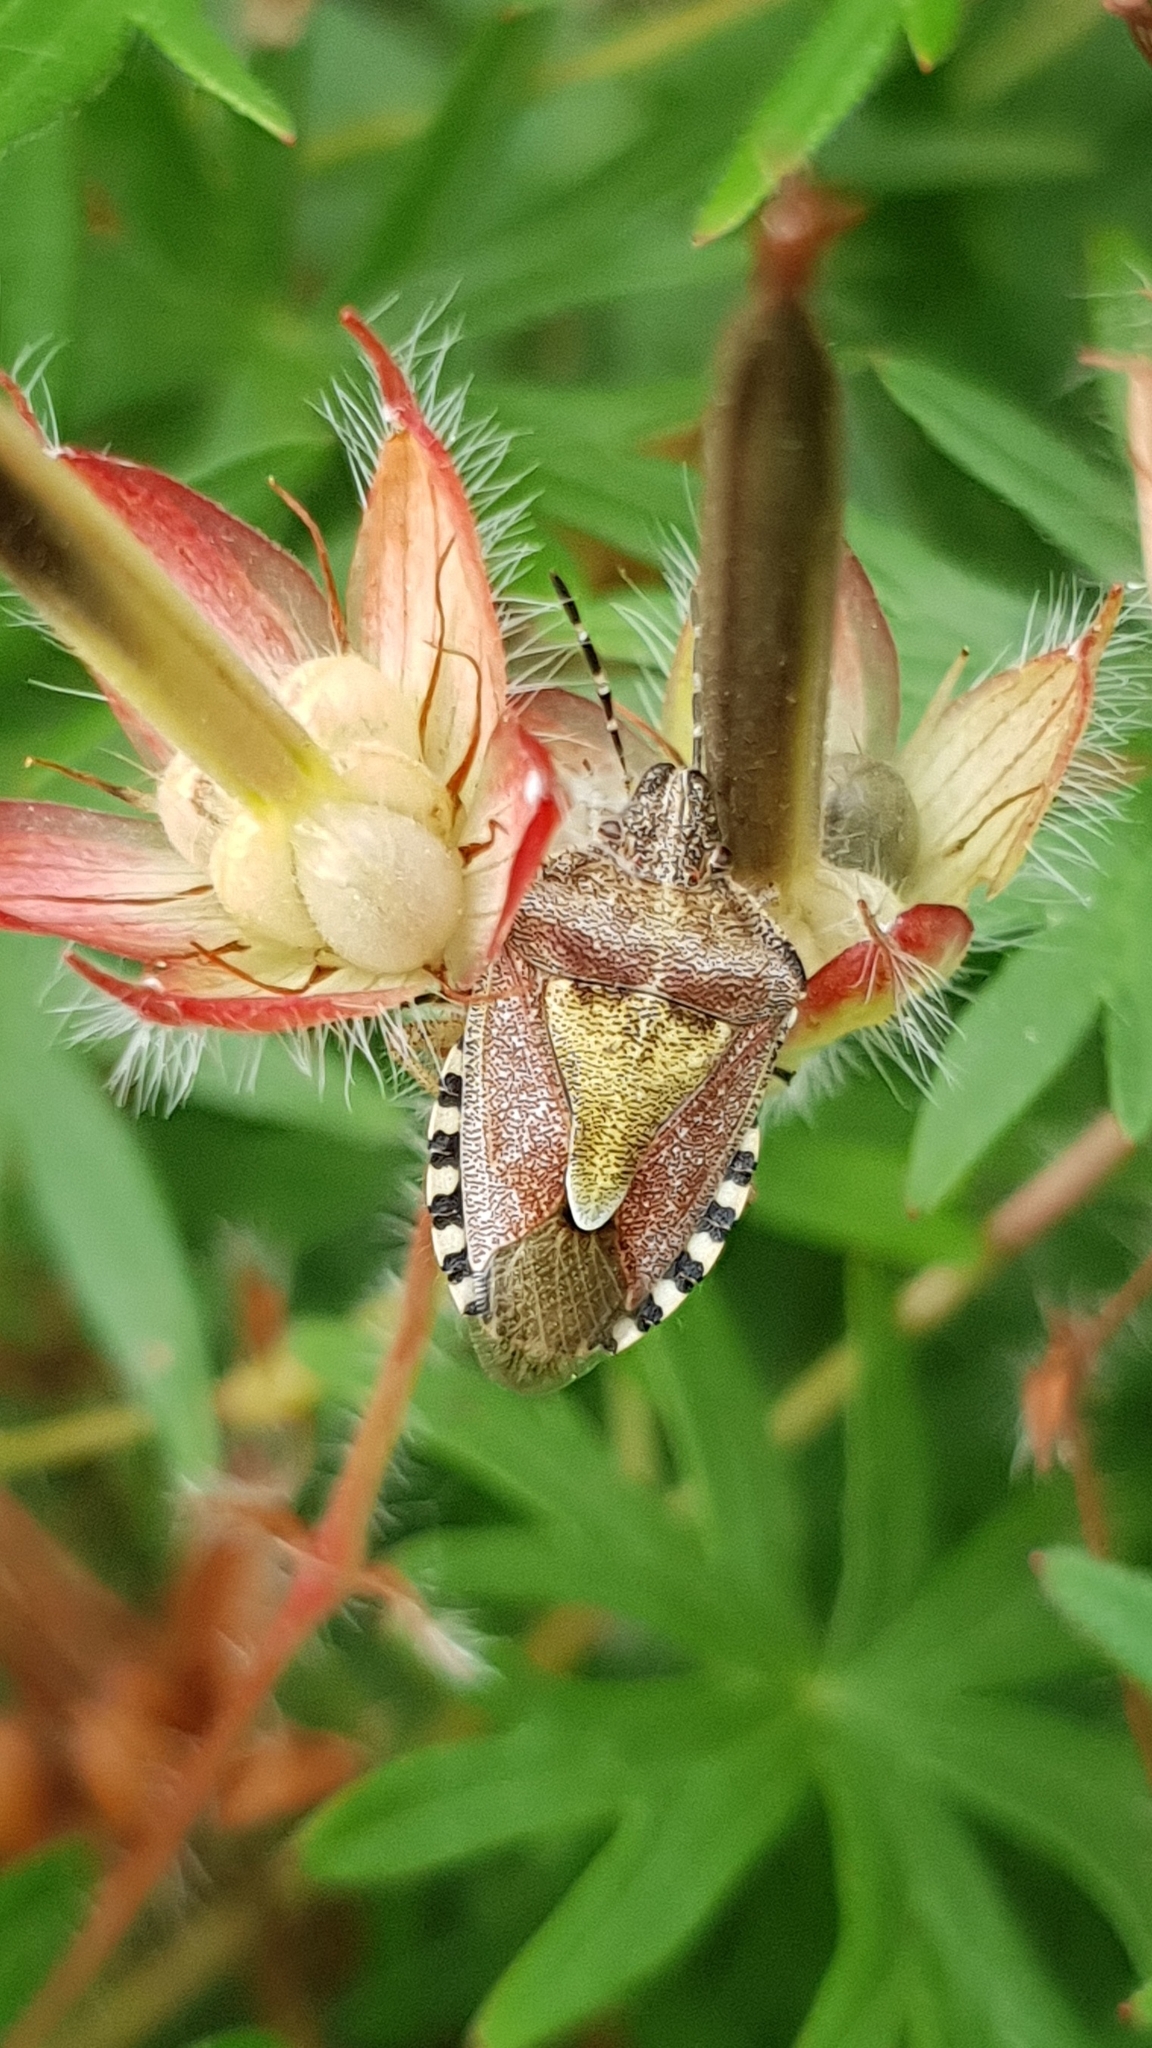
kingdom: Animalia
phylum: Arthropoda
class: Insecta
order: Hemiptera
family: Pentatomidae
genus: Dolycoris
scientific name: Dolycoris baccarum
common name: Sloe bug
